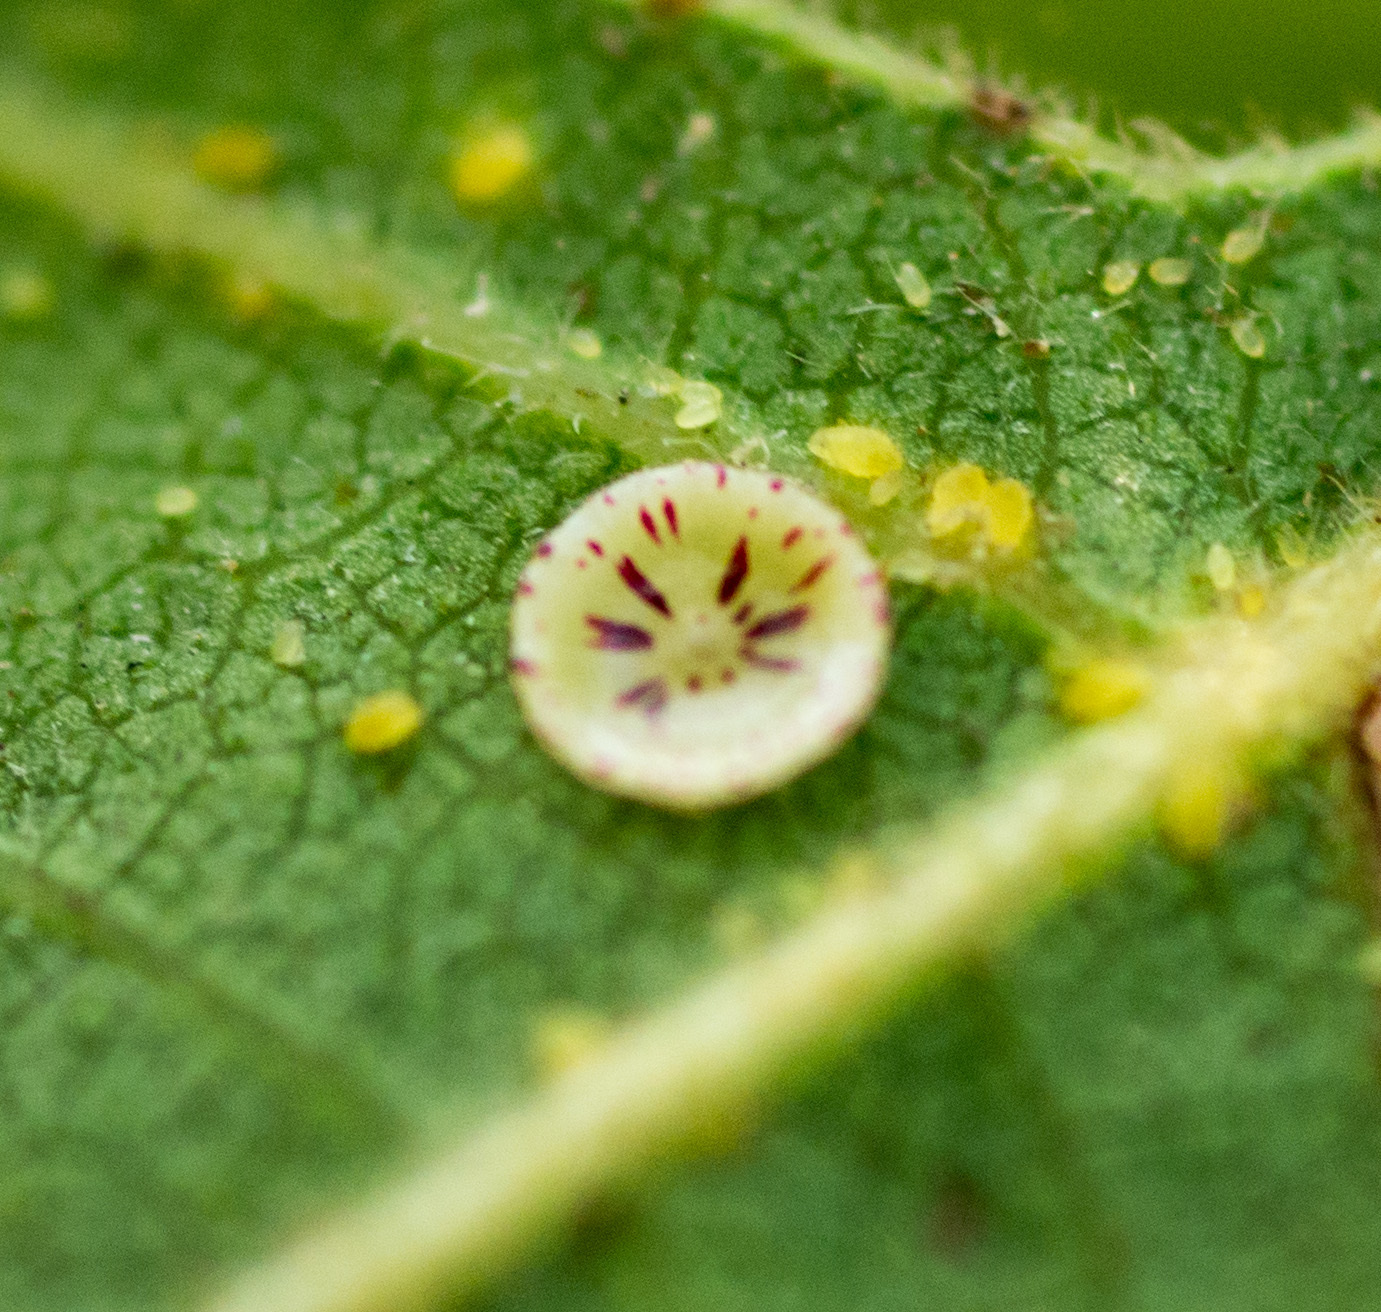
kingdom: Animalia
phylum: Arthropoda
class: Insecta
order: Hymenoptera
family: Cynipidae
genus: Andricus
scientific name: Andricus
